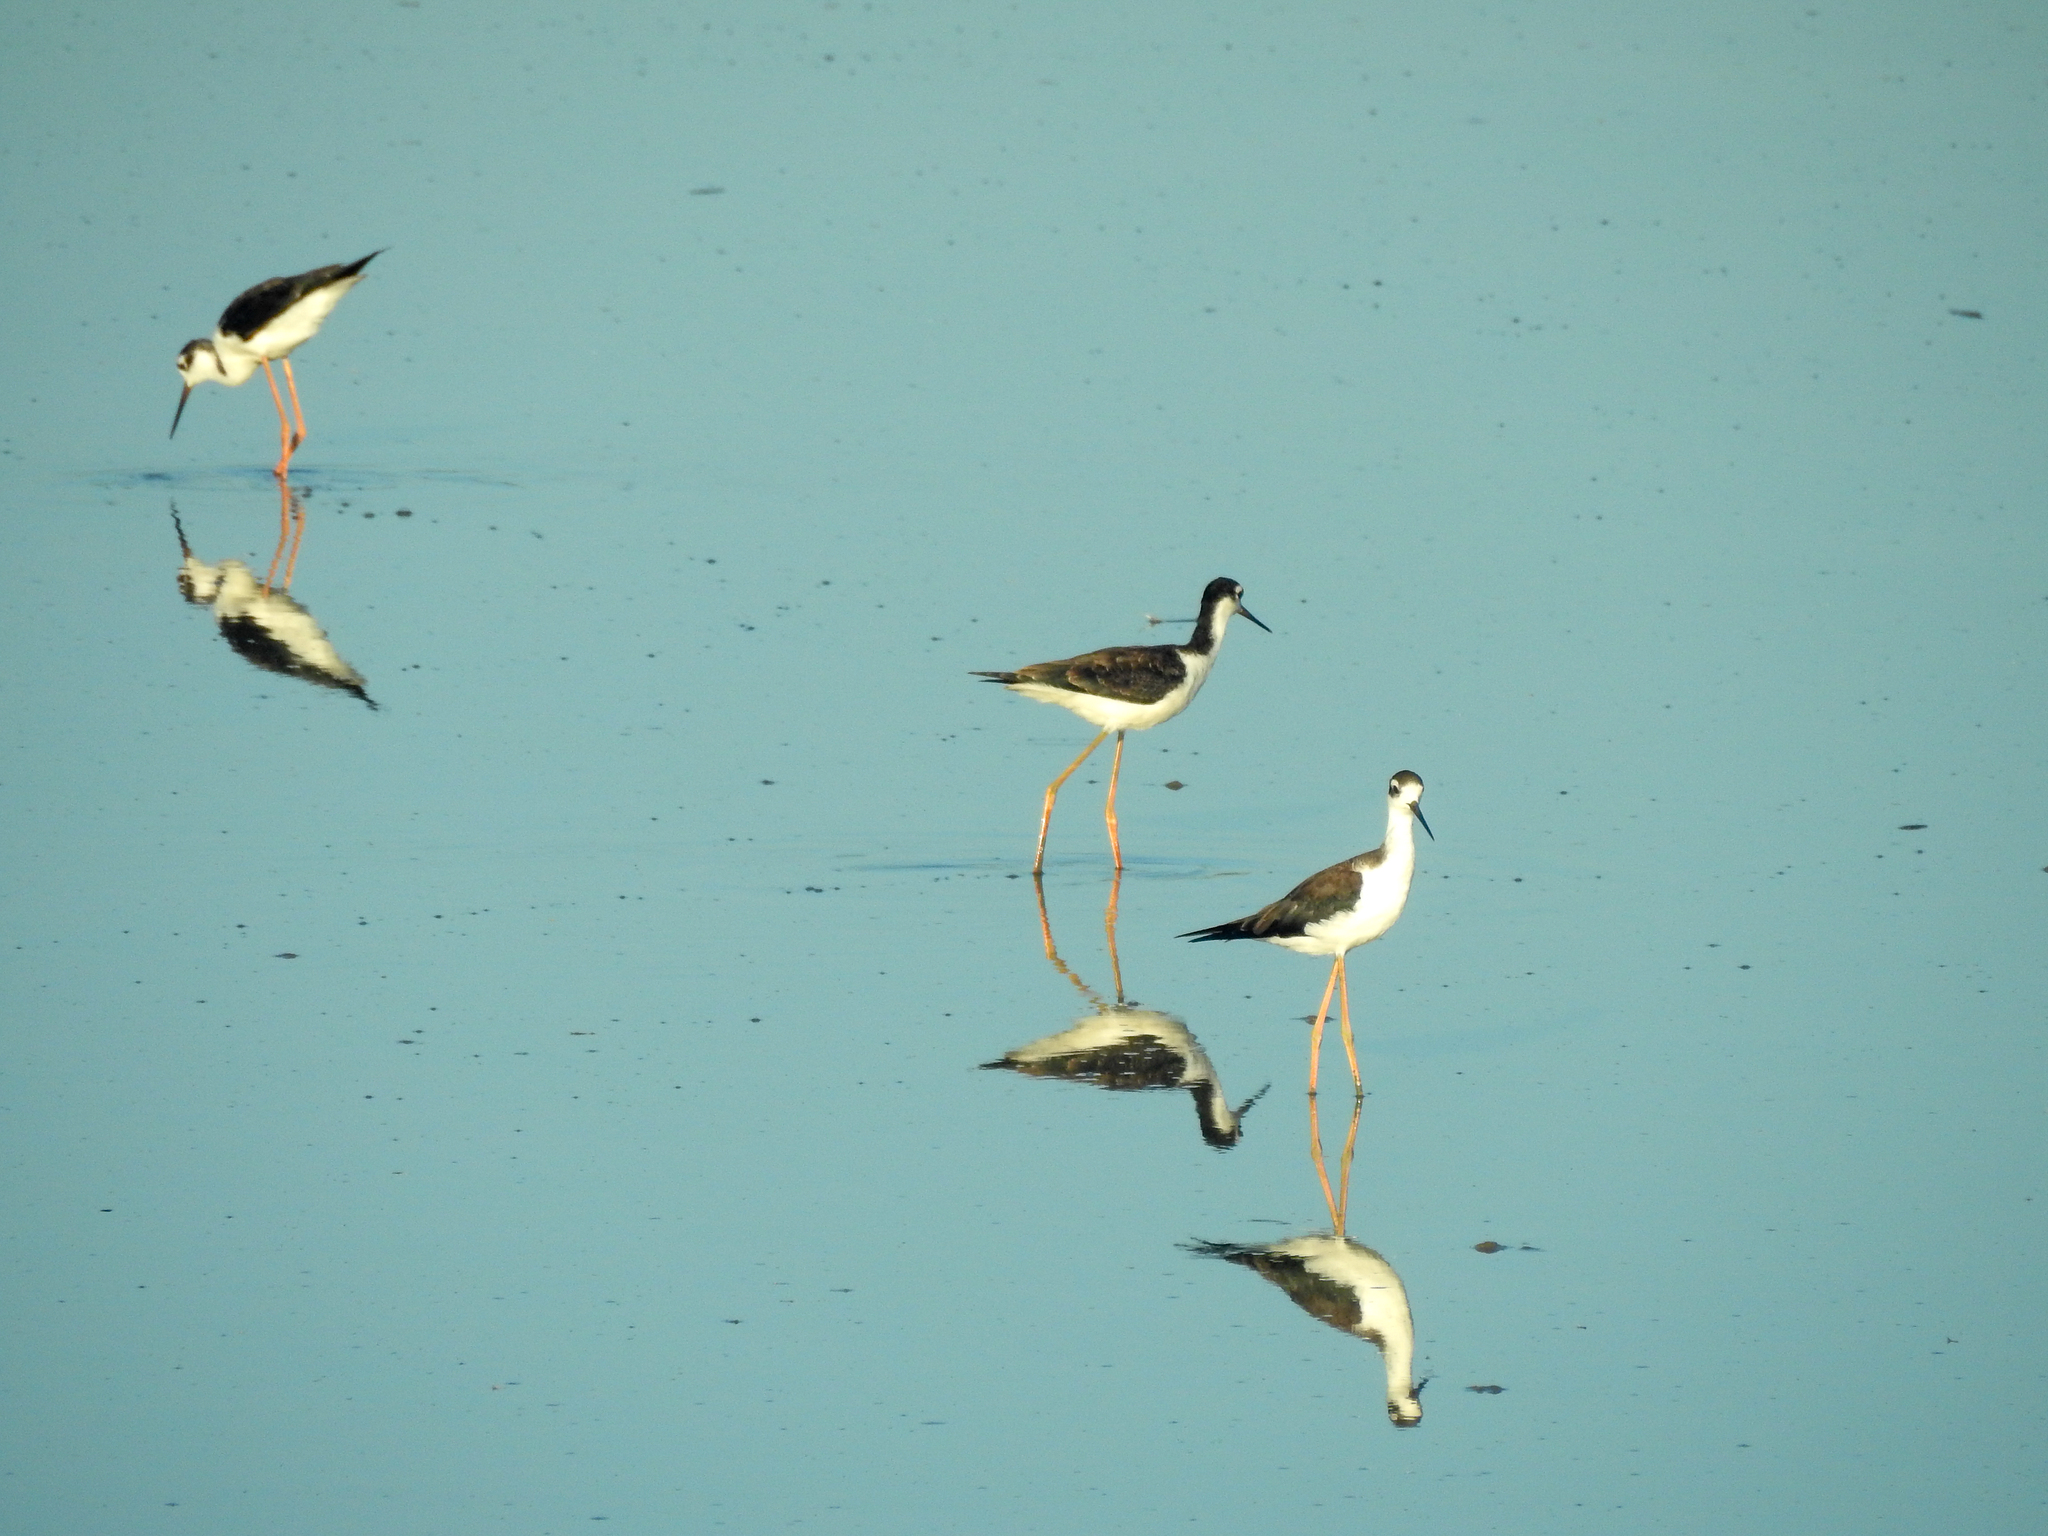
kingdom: Animalia
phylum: Chordata
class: Aves
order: Charadriiformes
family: Recurvirostridae
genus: Himantopus
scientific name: Himantopus mexicanus
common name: Black-necked stilt
